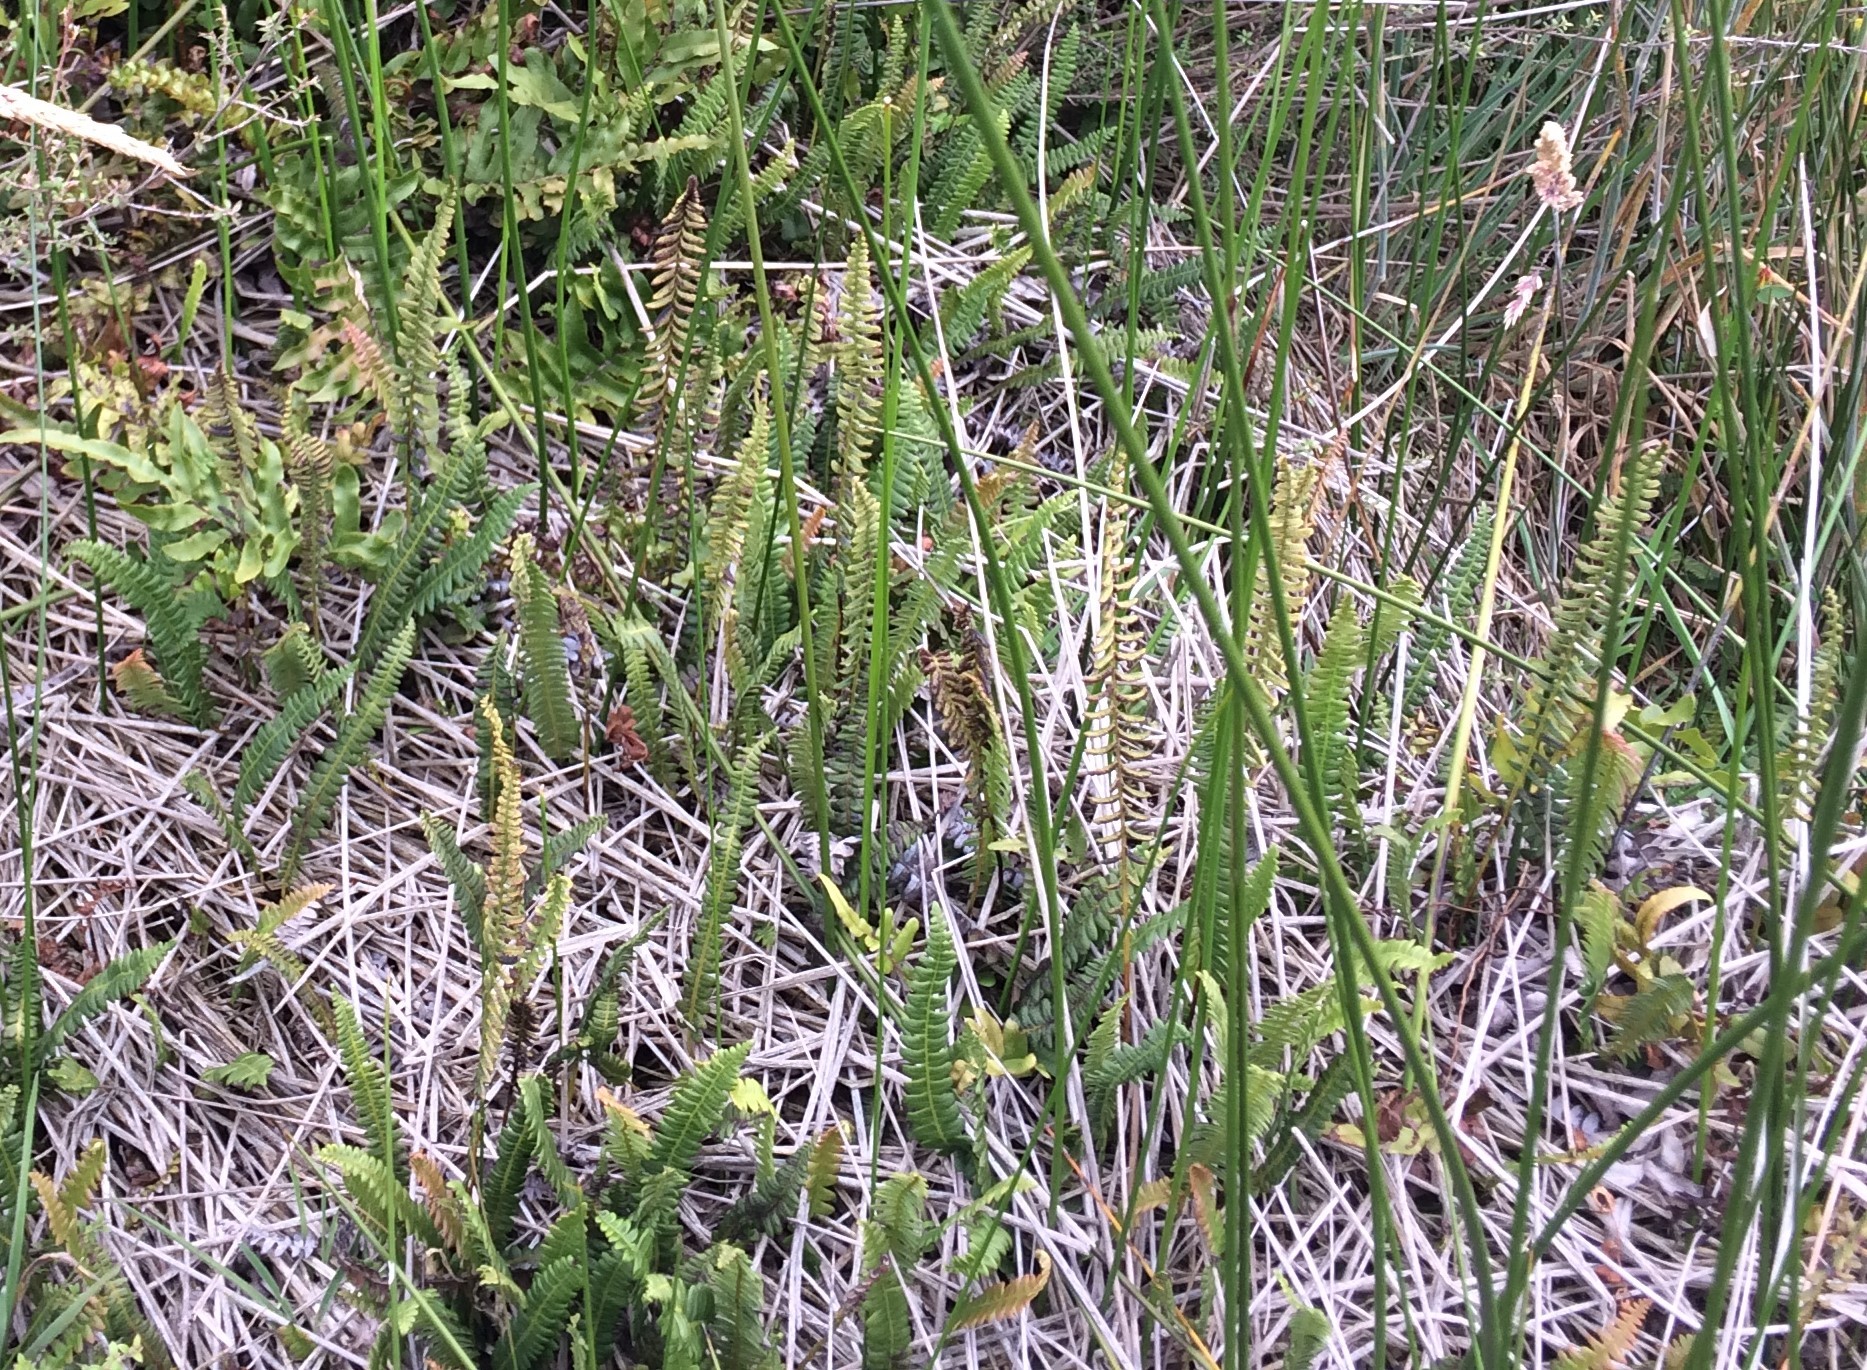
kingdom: Plantae
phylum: Tracheophyta
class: Polypodiopsida
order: Polypodiales
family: Blechnaceae
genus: Austroblechnum
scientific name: Austroblechnum penna-marina
